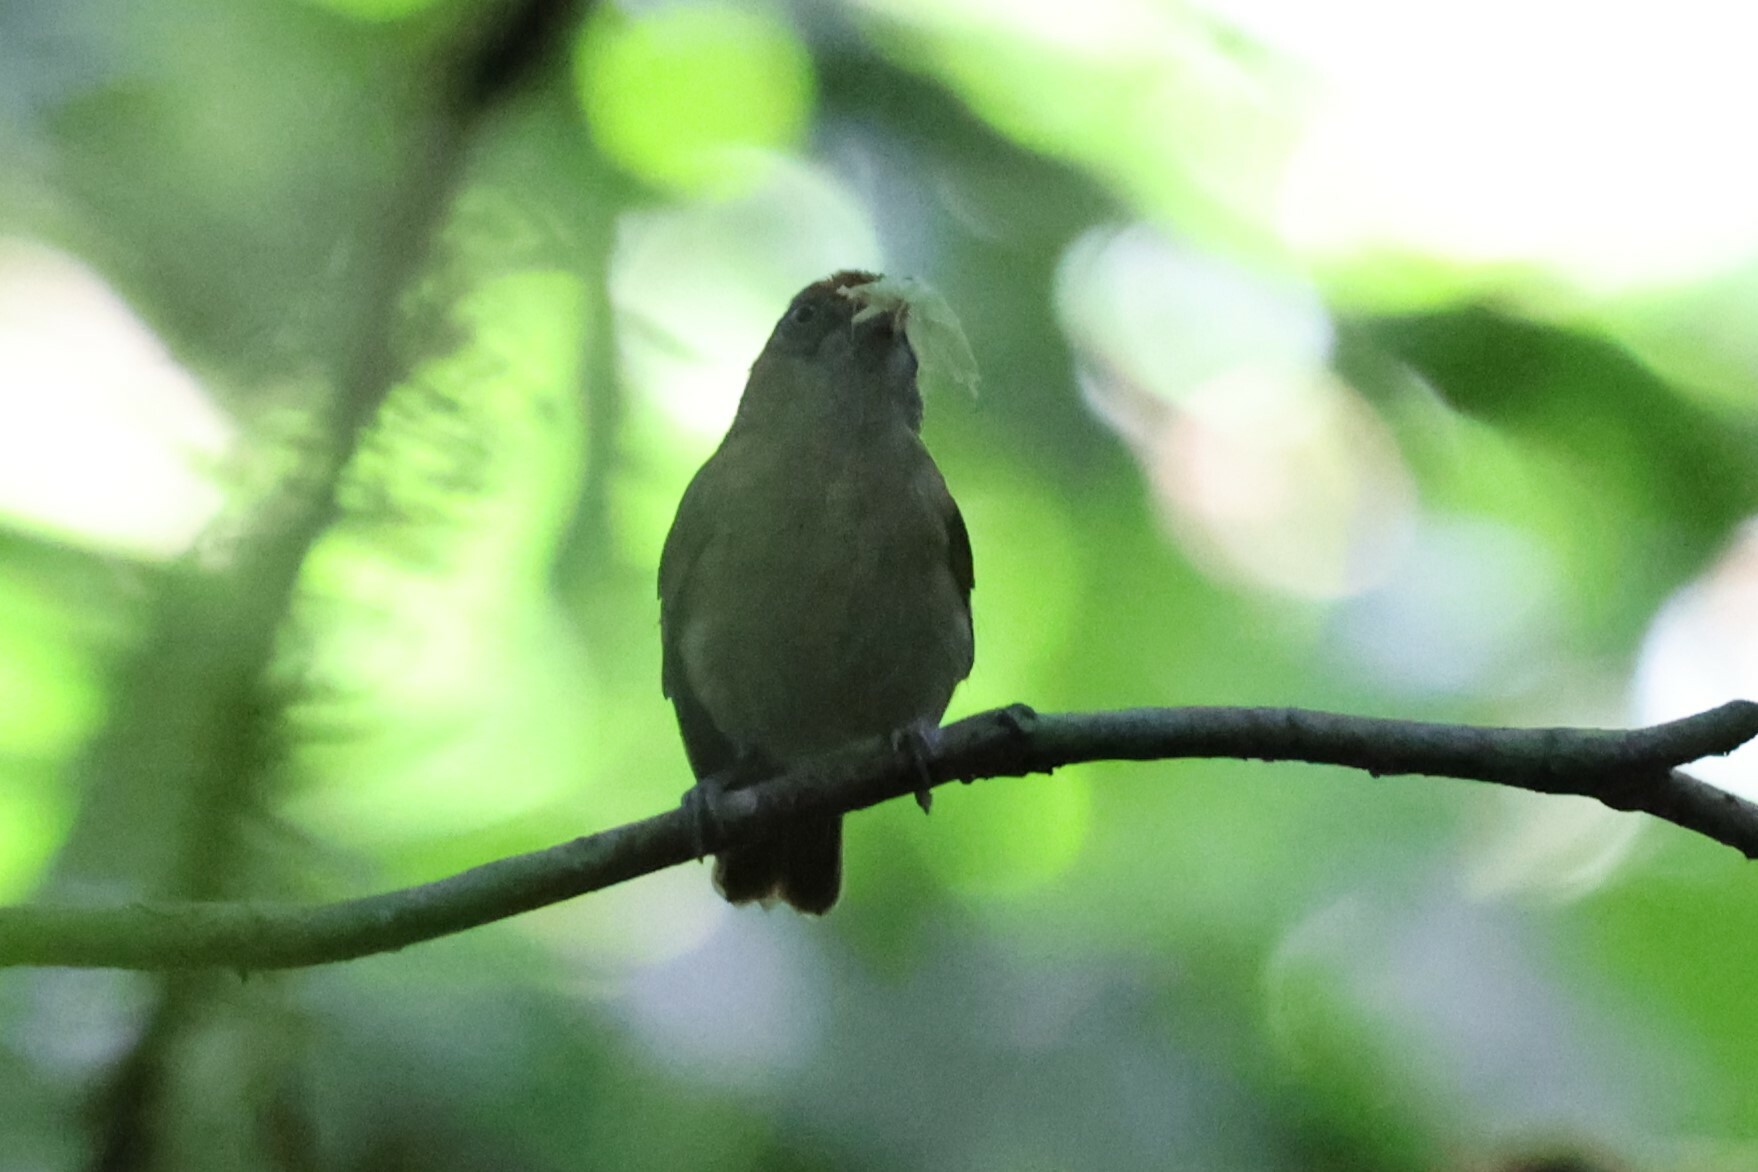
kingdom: Animalia
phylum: Chordata
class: Aves
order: Passeriformes
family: Vireonidae
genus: Hylophilus
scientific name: Hylophilus ochraceiceps
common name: Tawny-crowned greenlet
